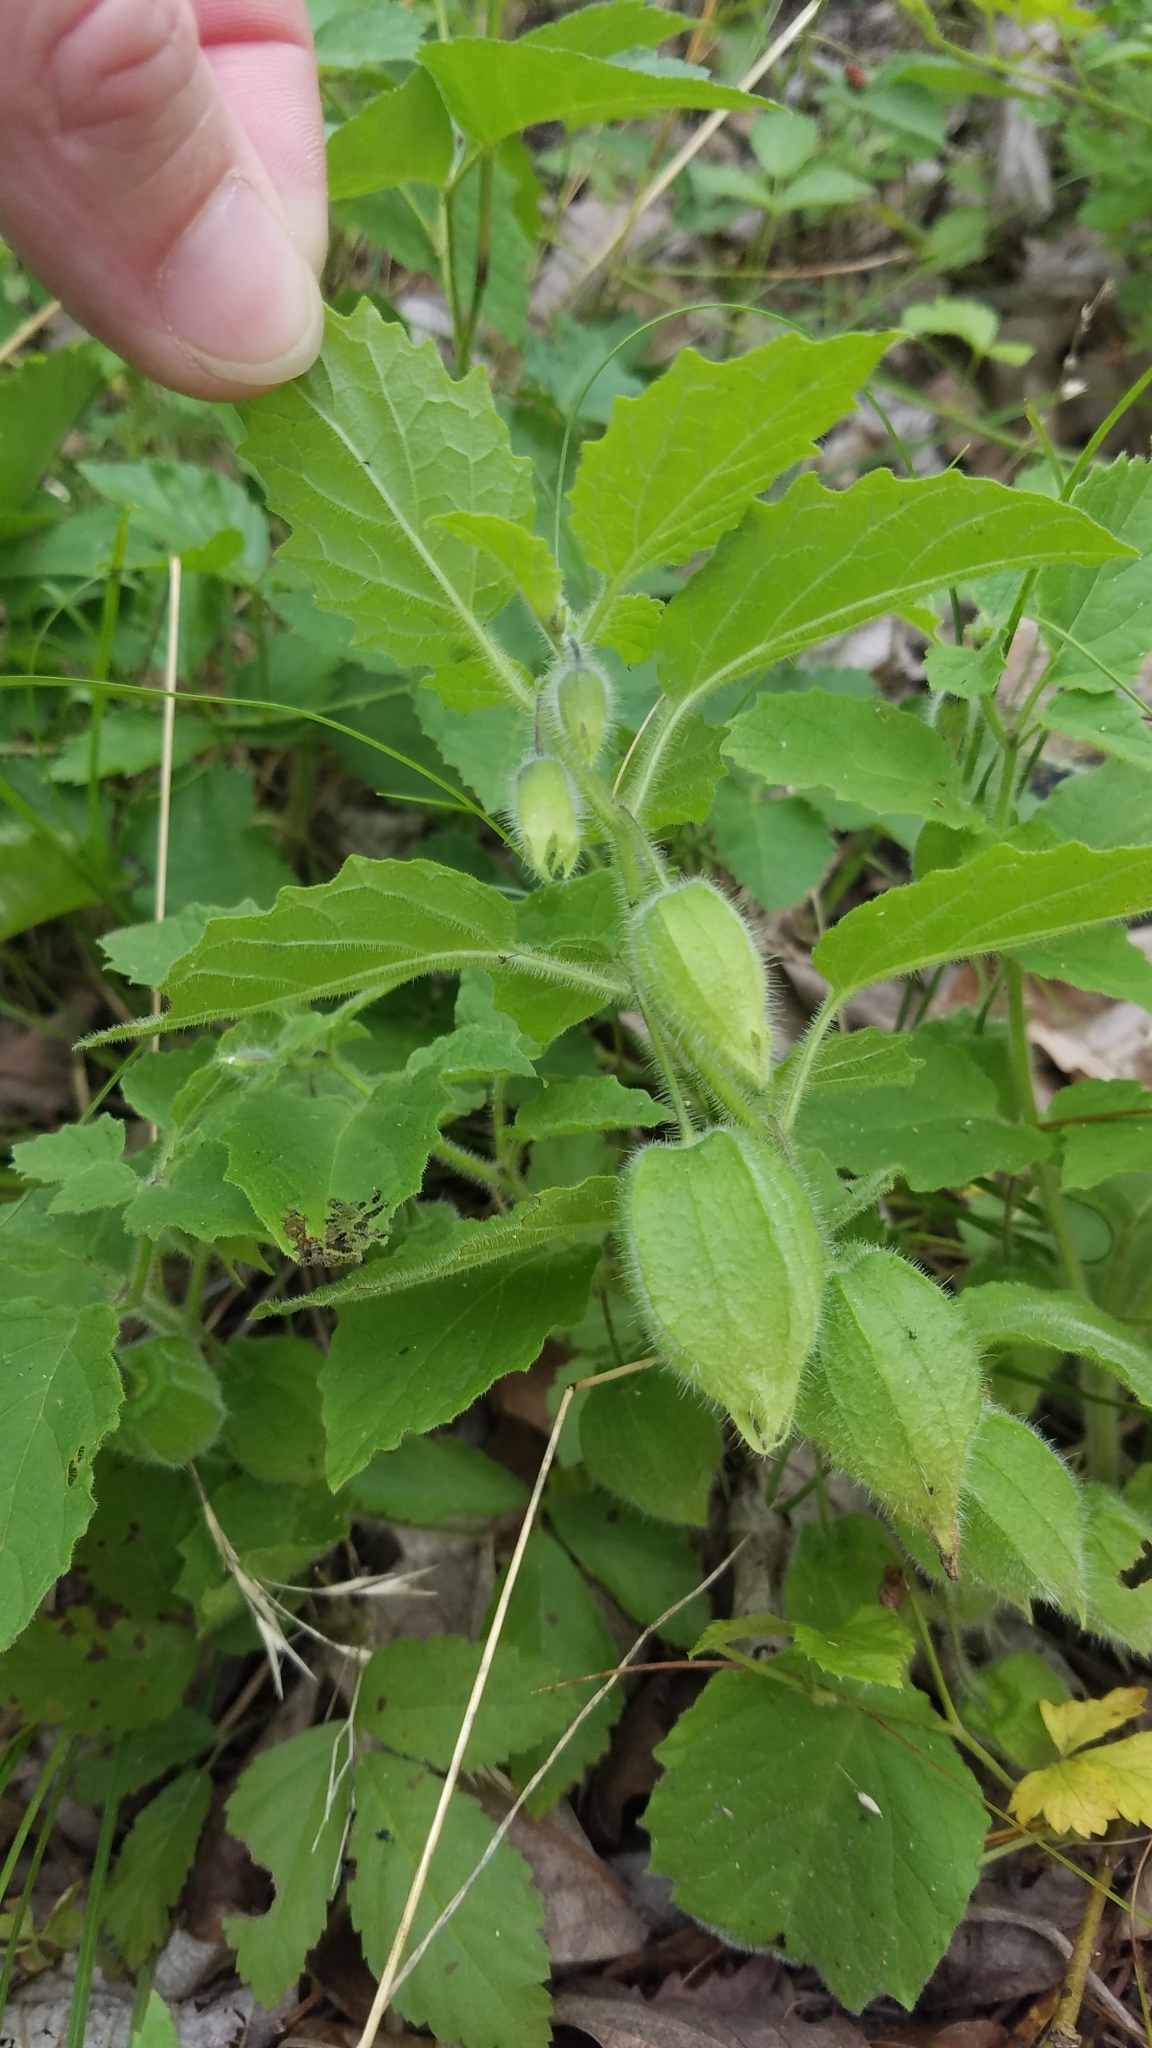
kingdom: Plantae
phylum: Tracheophyta
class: Magnoliopsida
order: Solanales
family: Solanaceae
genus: Physalis
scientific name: Physalis heterophylla
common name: Clammy ground-cherry
